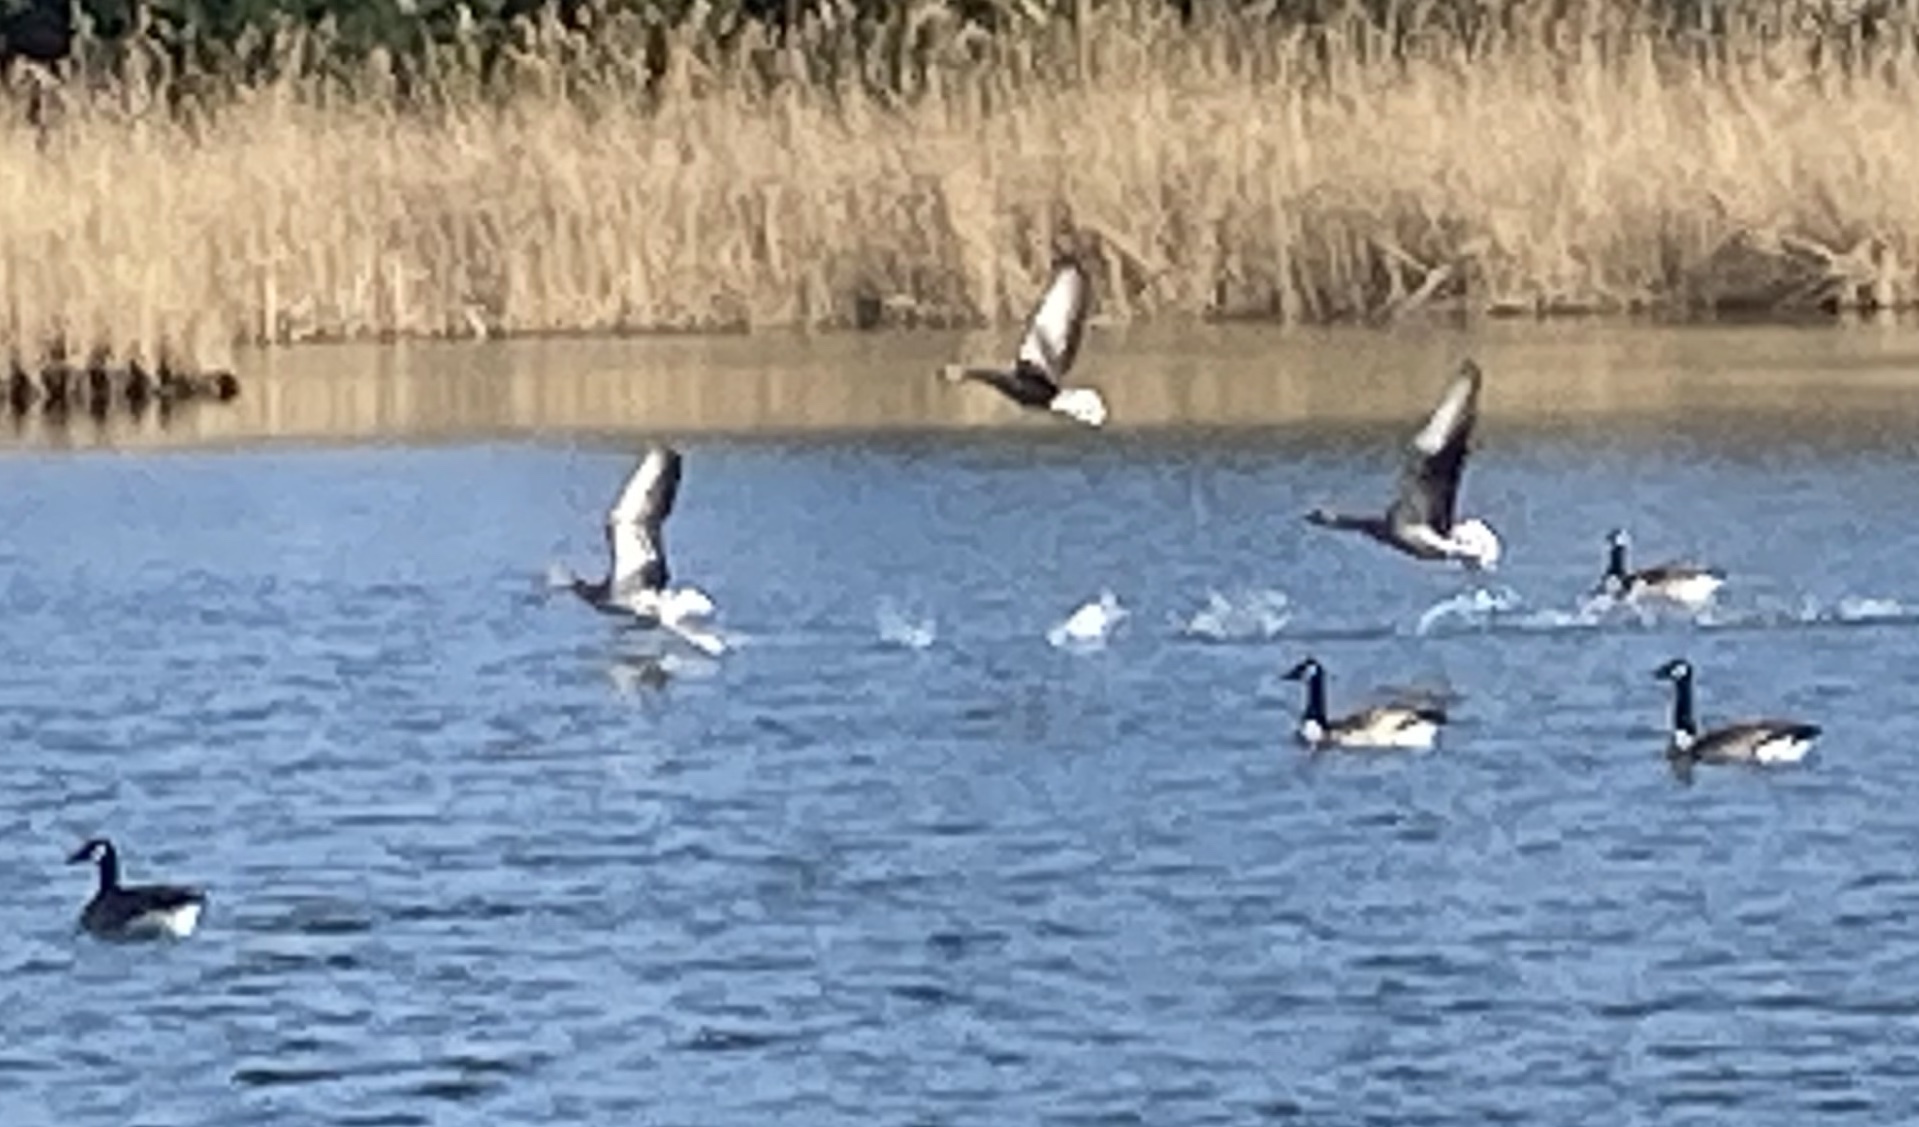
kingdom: Animalia
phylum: Chordata
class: Aves
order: Anseriformes
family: Anatidae
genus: Branta
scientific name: Branta canadensis
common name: Canada goose
